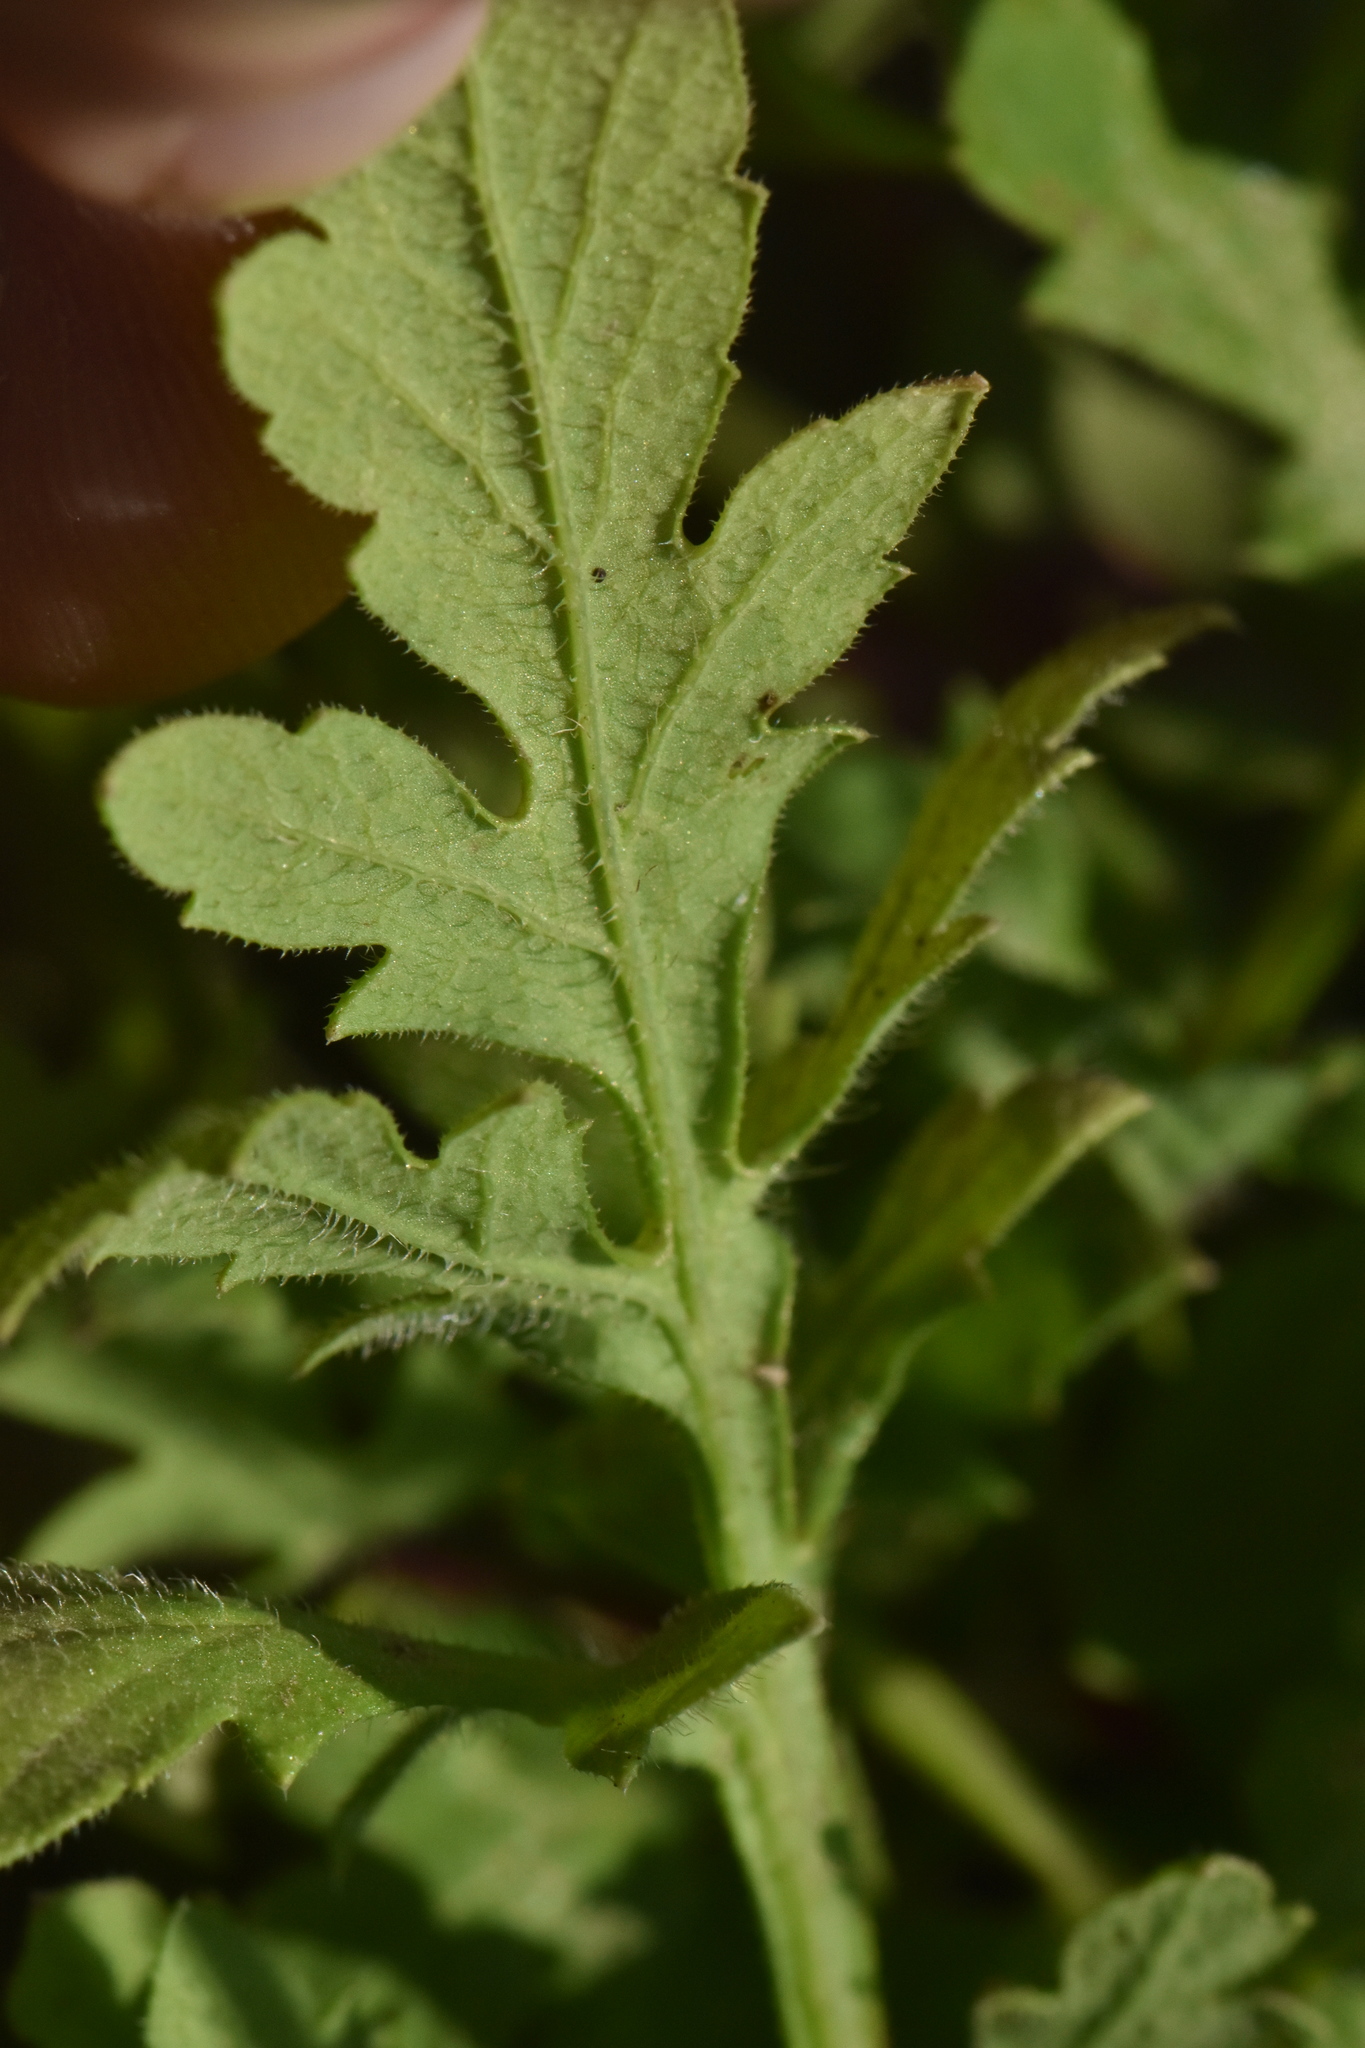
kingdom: Plantae
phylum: Tracheophyta
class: Magnoliopsida
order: Ranunculales
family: Papaveraceae
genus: Papaver
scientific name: Papaver rhoeas
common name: Corn poppy
